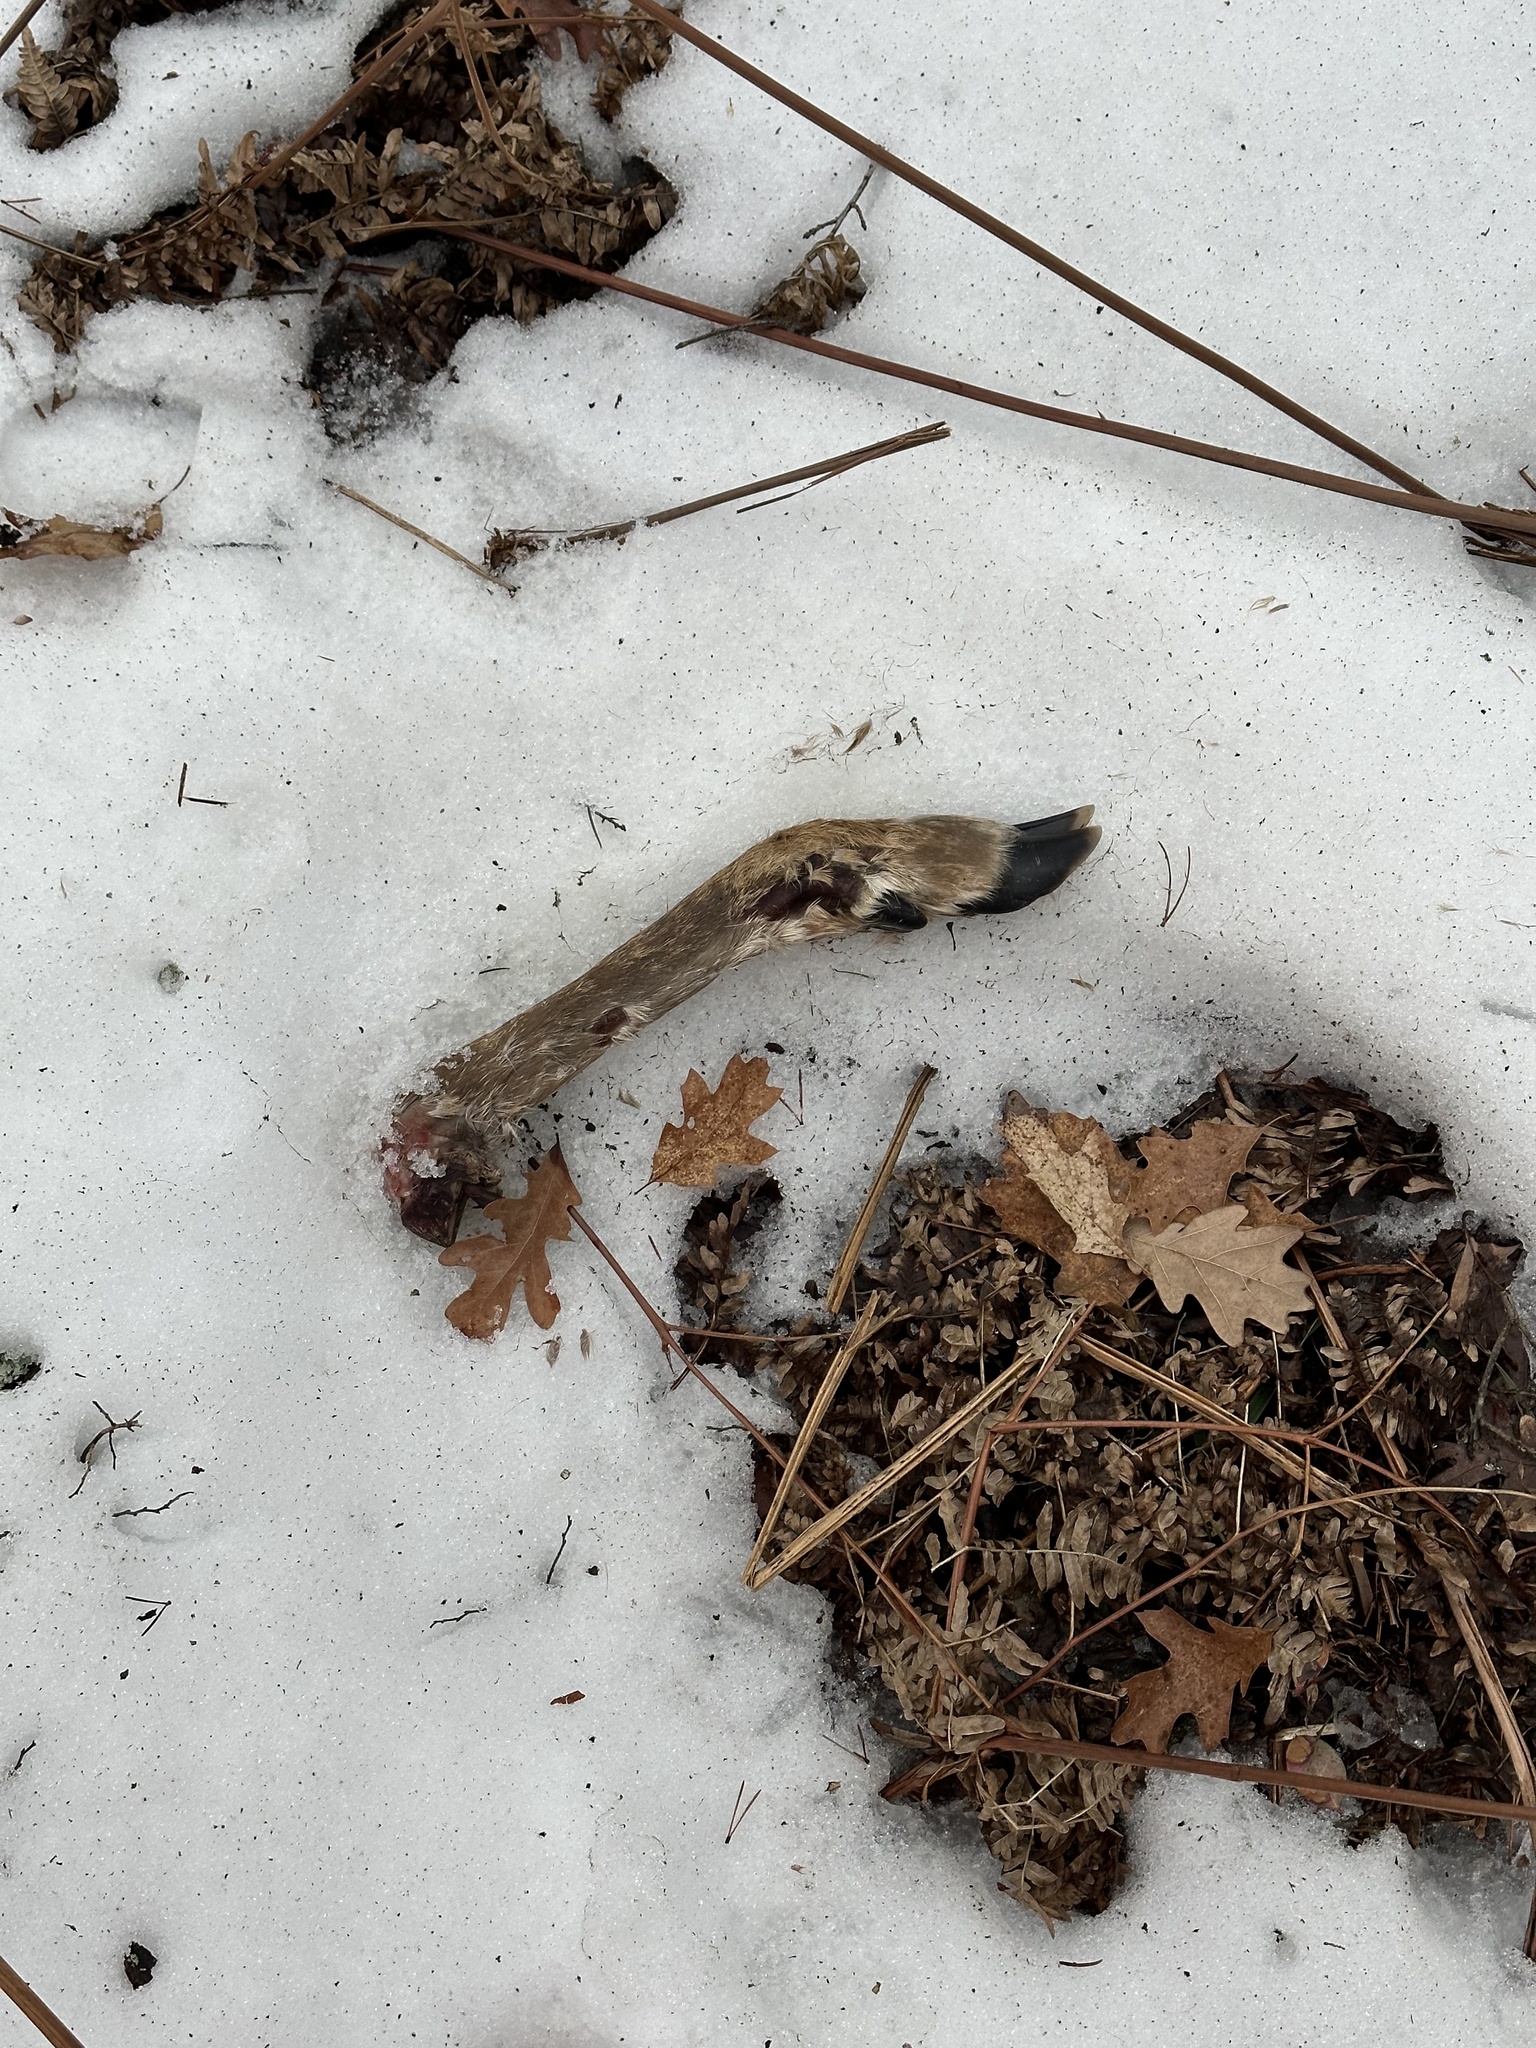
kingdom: Animalia
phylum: Chordata
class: Mammalia
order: Artiodactyla
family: Cervidae
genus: Odocoileus
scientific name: Odocoileus virginianus
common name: White-tailed deer
